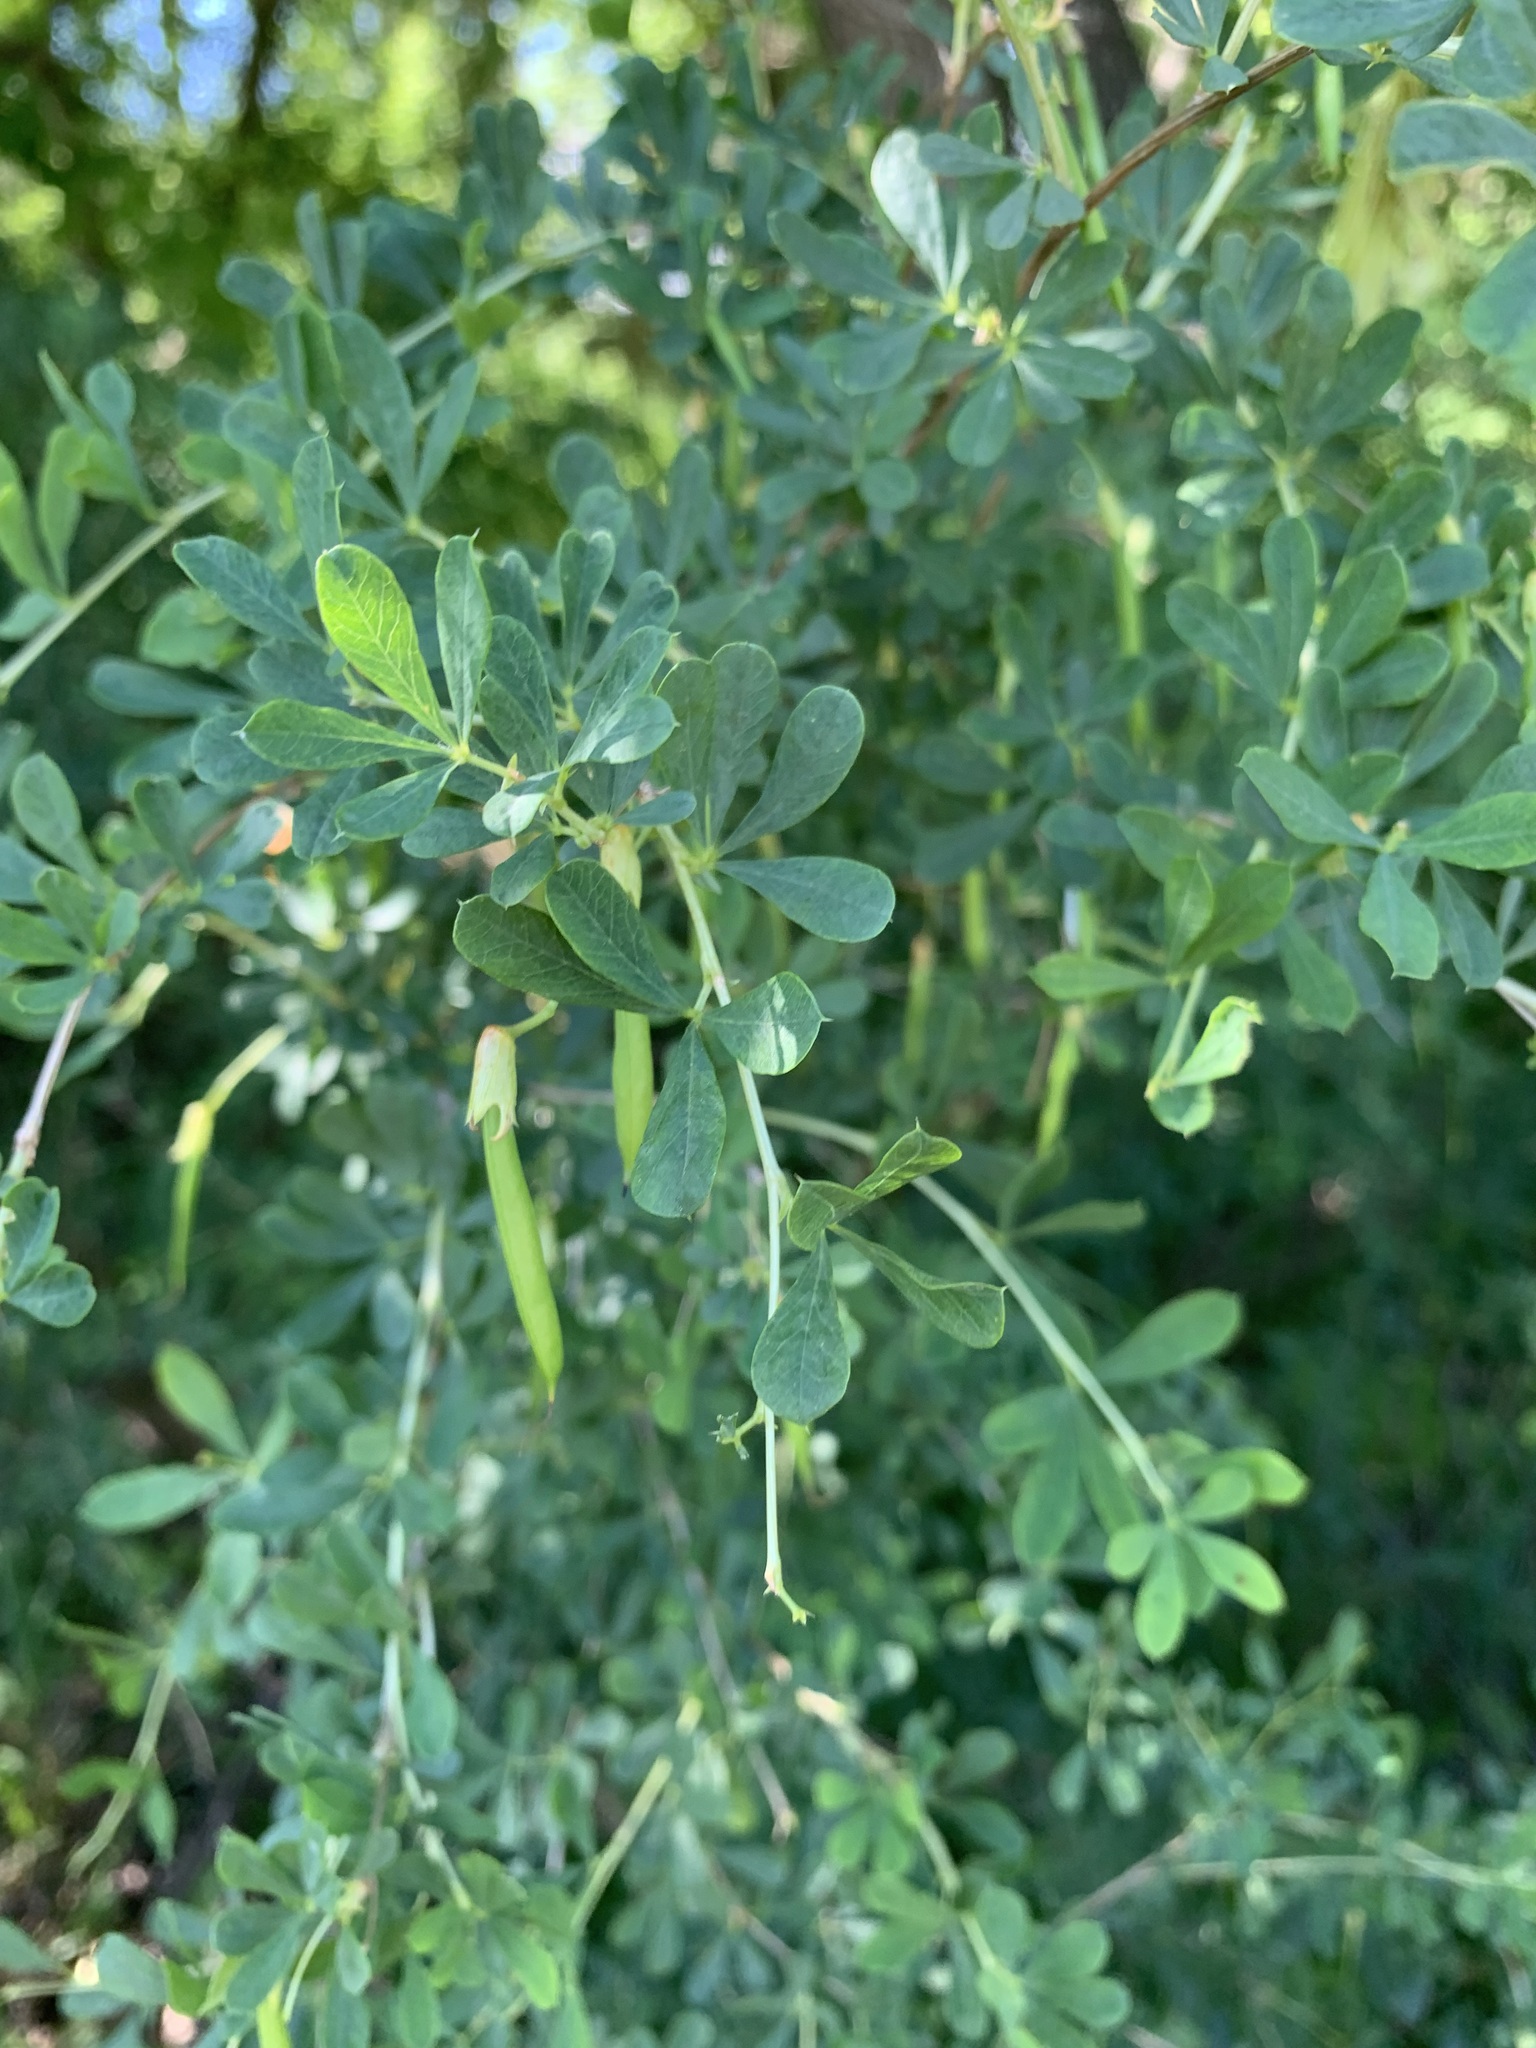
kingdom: Plantae
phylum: Tracheophyta
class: Magnoliopsida
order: Fabales
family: Fabaceae
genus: Caragana
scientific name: Caragana frutex
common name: Russian peashrub
